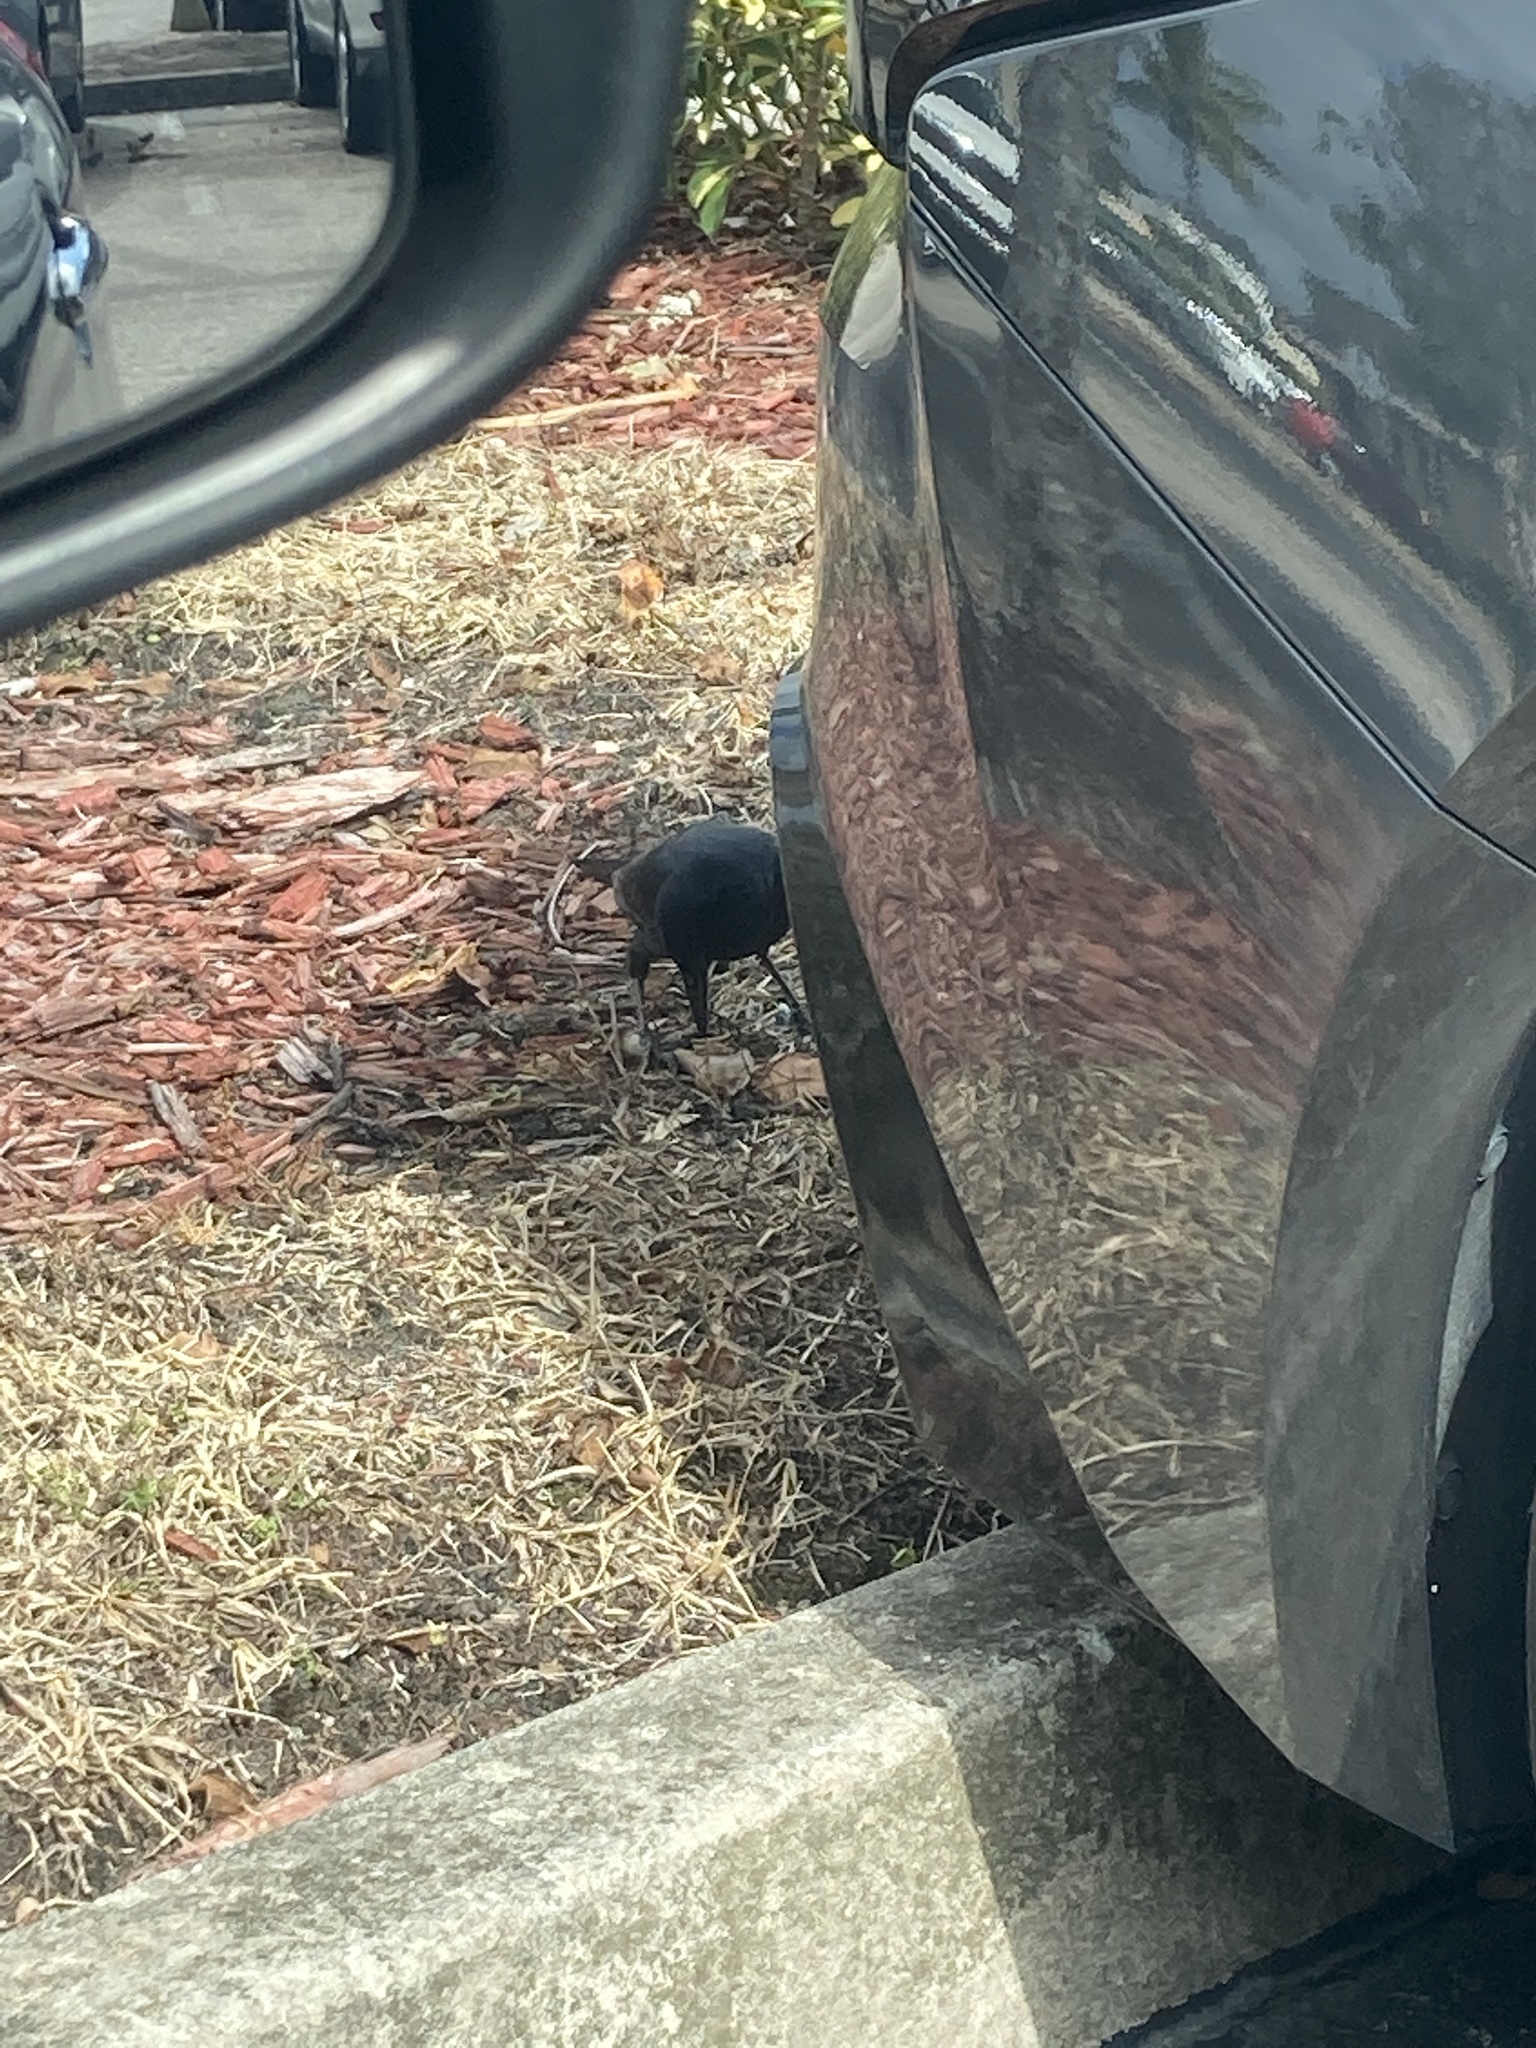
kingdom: Animalia
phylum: Chordata
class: Aves
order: Passeriformes
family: Icteridae
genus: Quiscalus
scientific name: Quiscalus major
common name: Boat-tailed grackle
